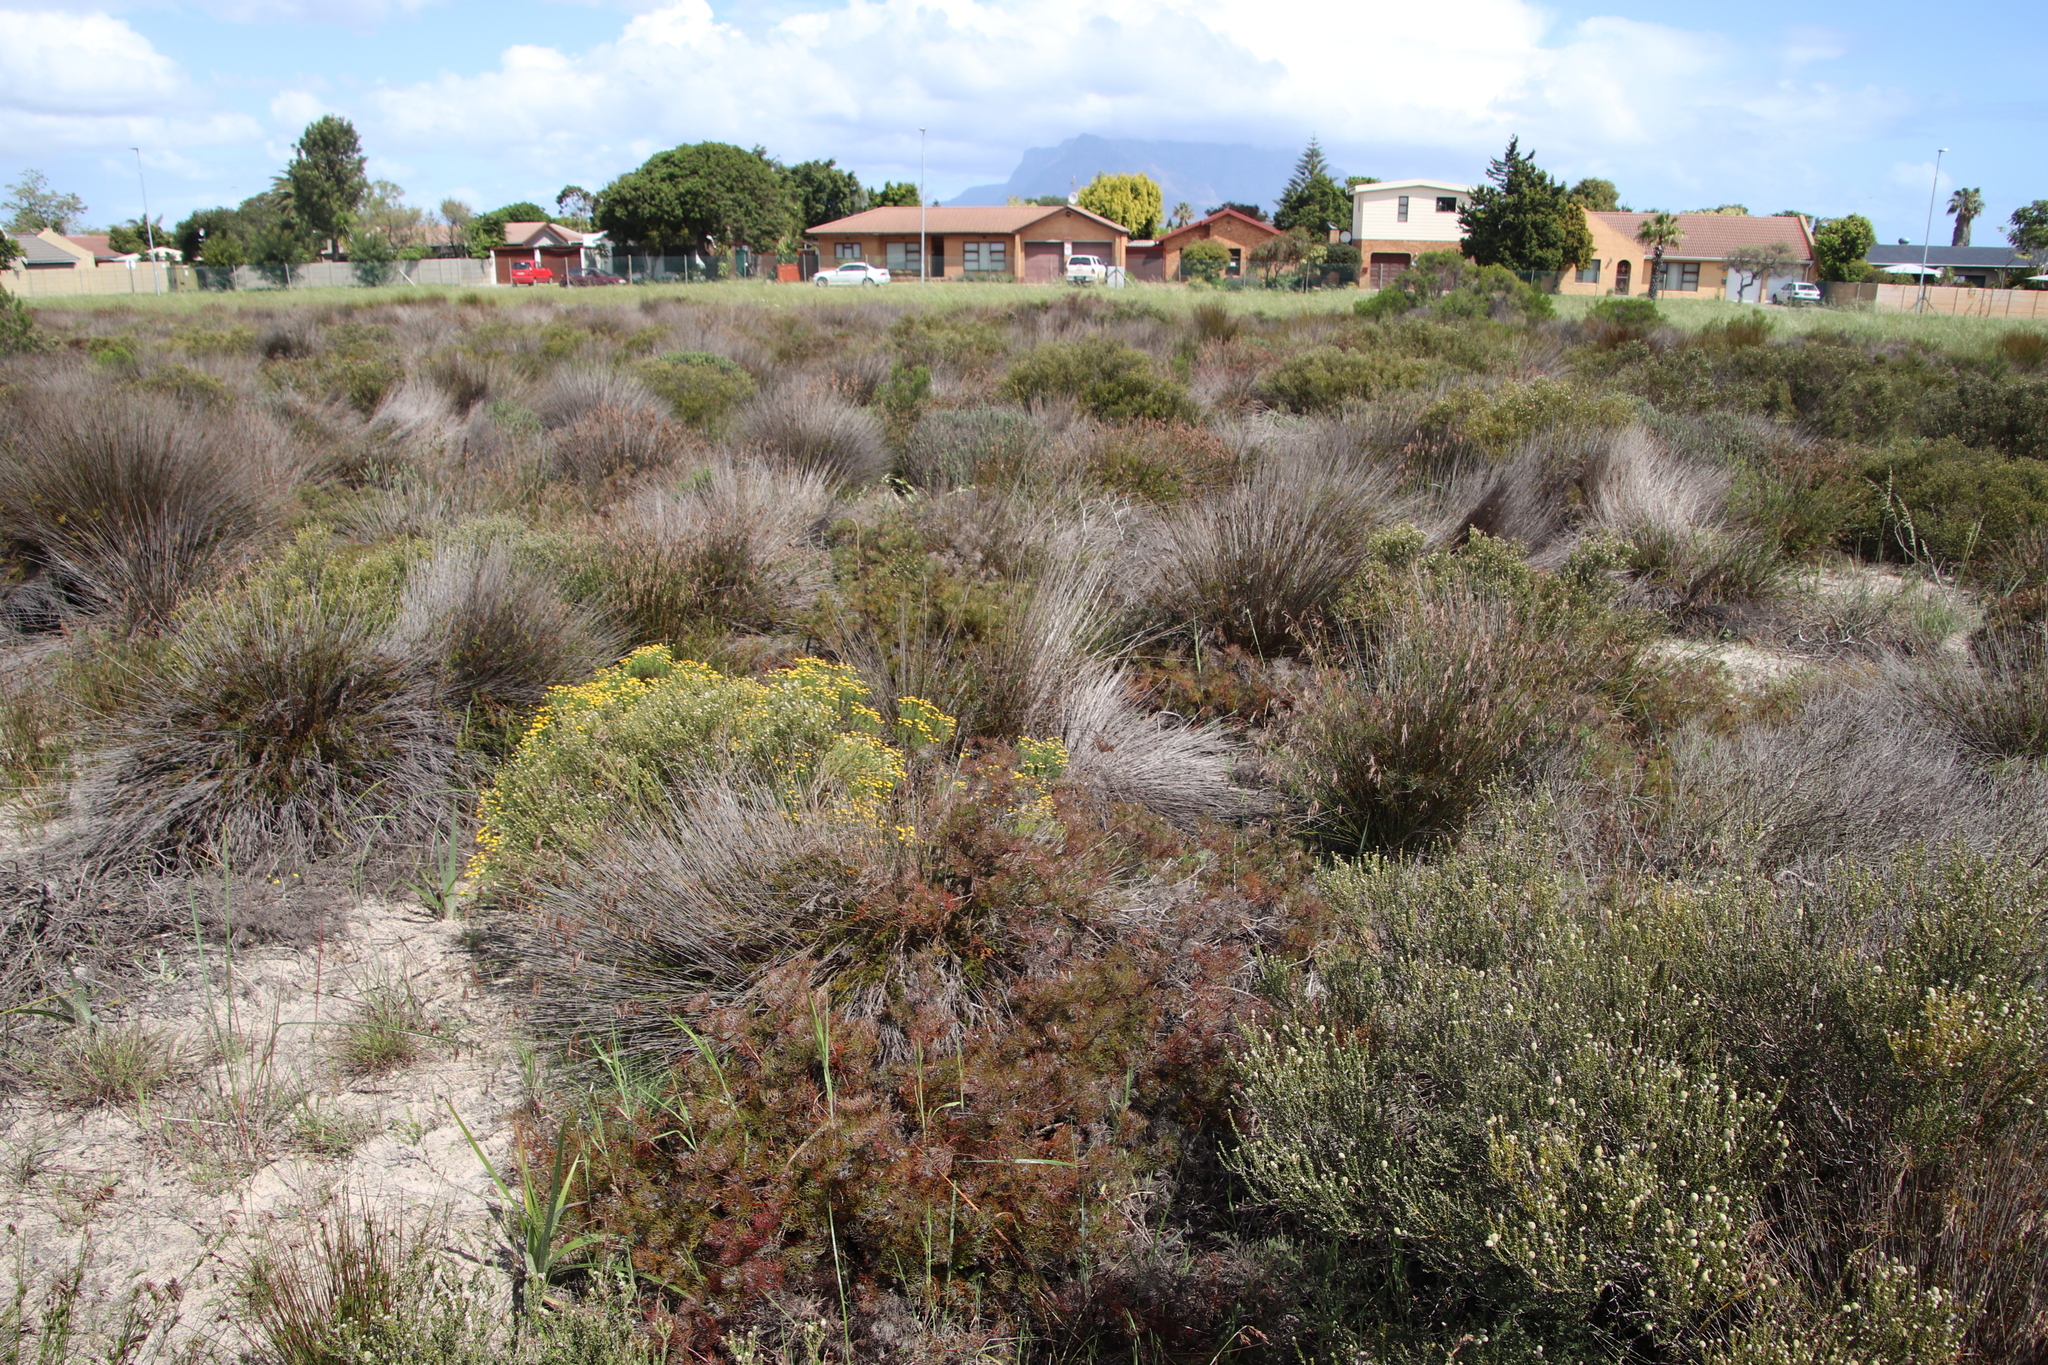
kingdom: Plantae
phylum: Tracheophyta
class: Magnoliopsida
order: Proteales
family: Proteaceae
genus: Serruria
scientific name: Serruria fasciflora
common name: Common pin spiderhead
